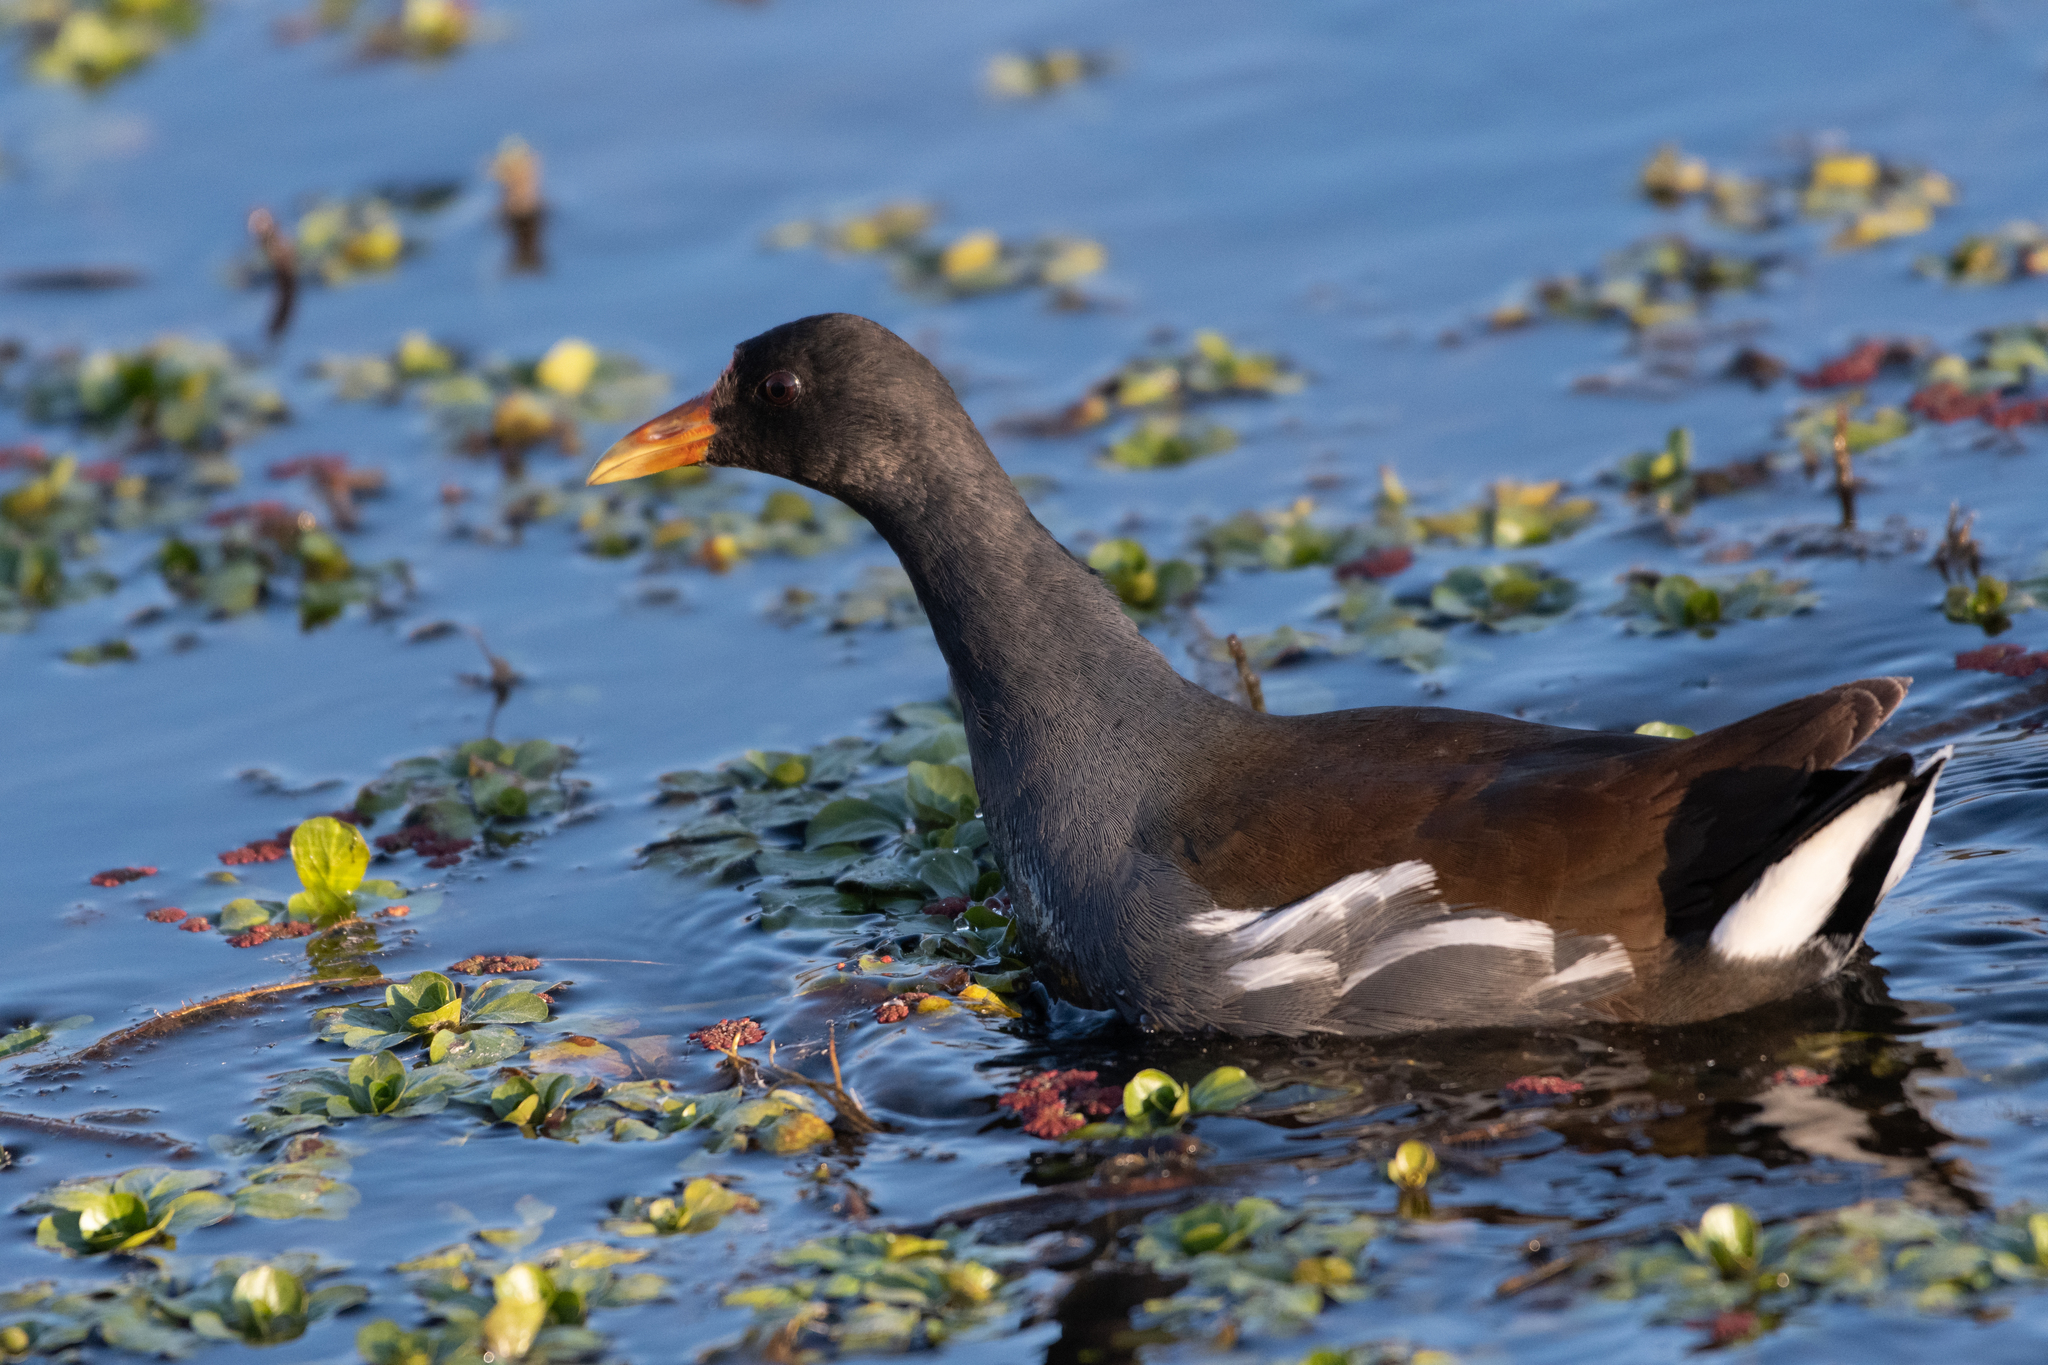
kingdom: Animalia
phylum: Chordata
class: Aves
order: Gruiformes
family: Rallidae
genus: Gallinula
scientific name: Gallinula chloropus
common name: Common moorhen
